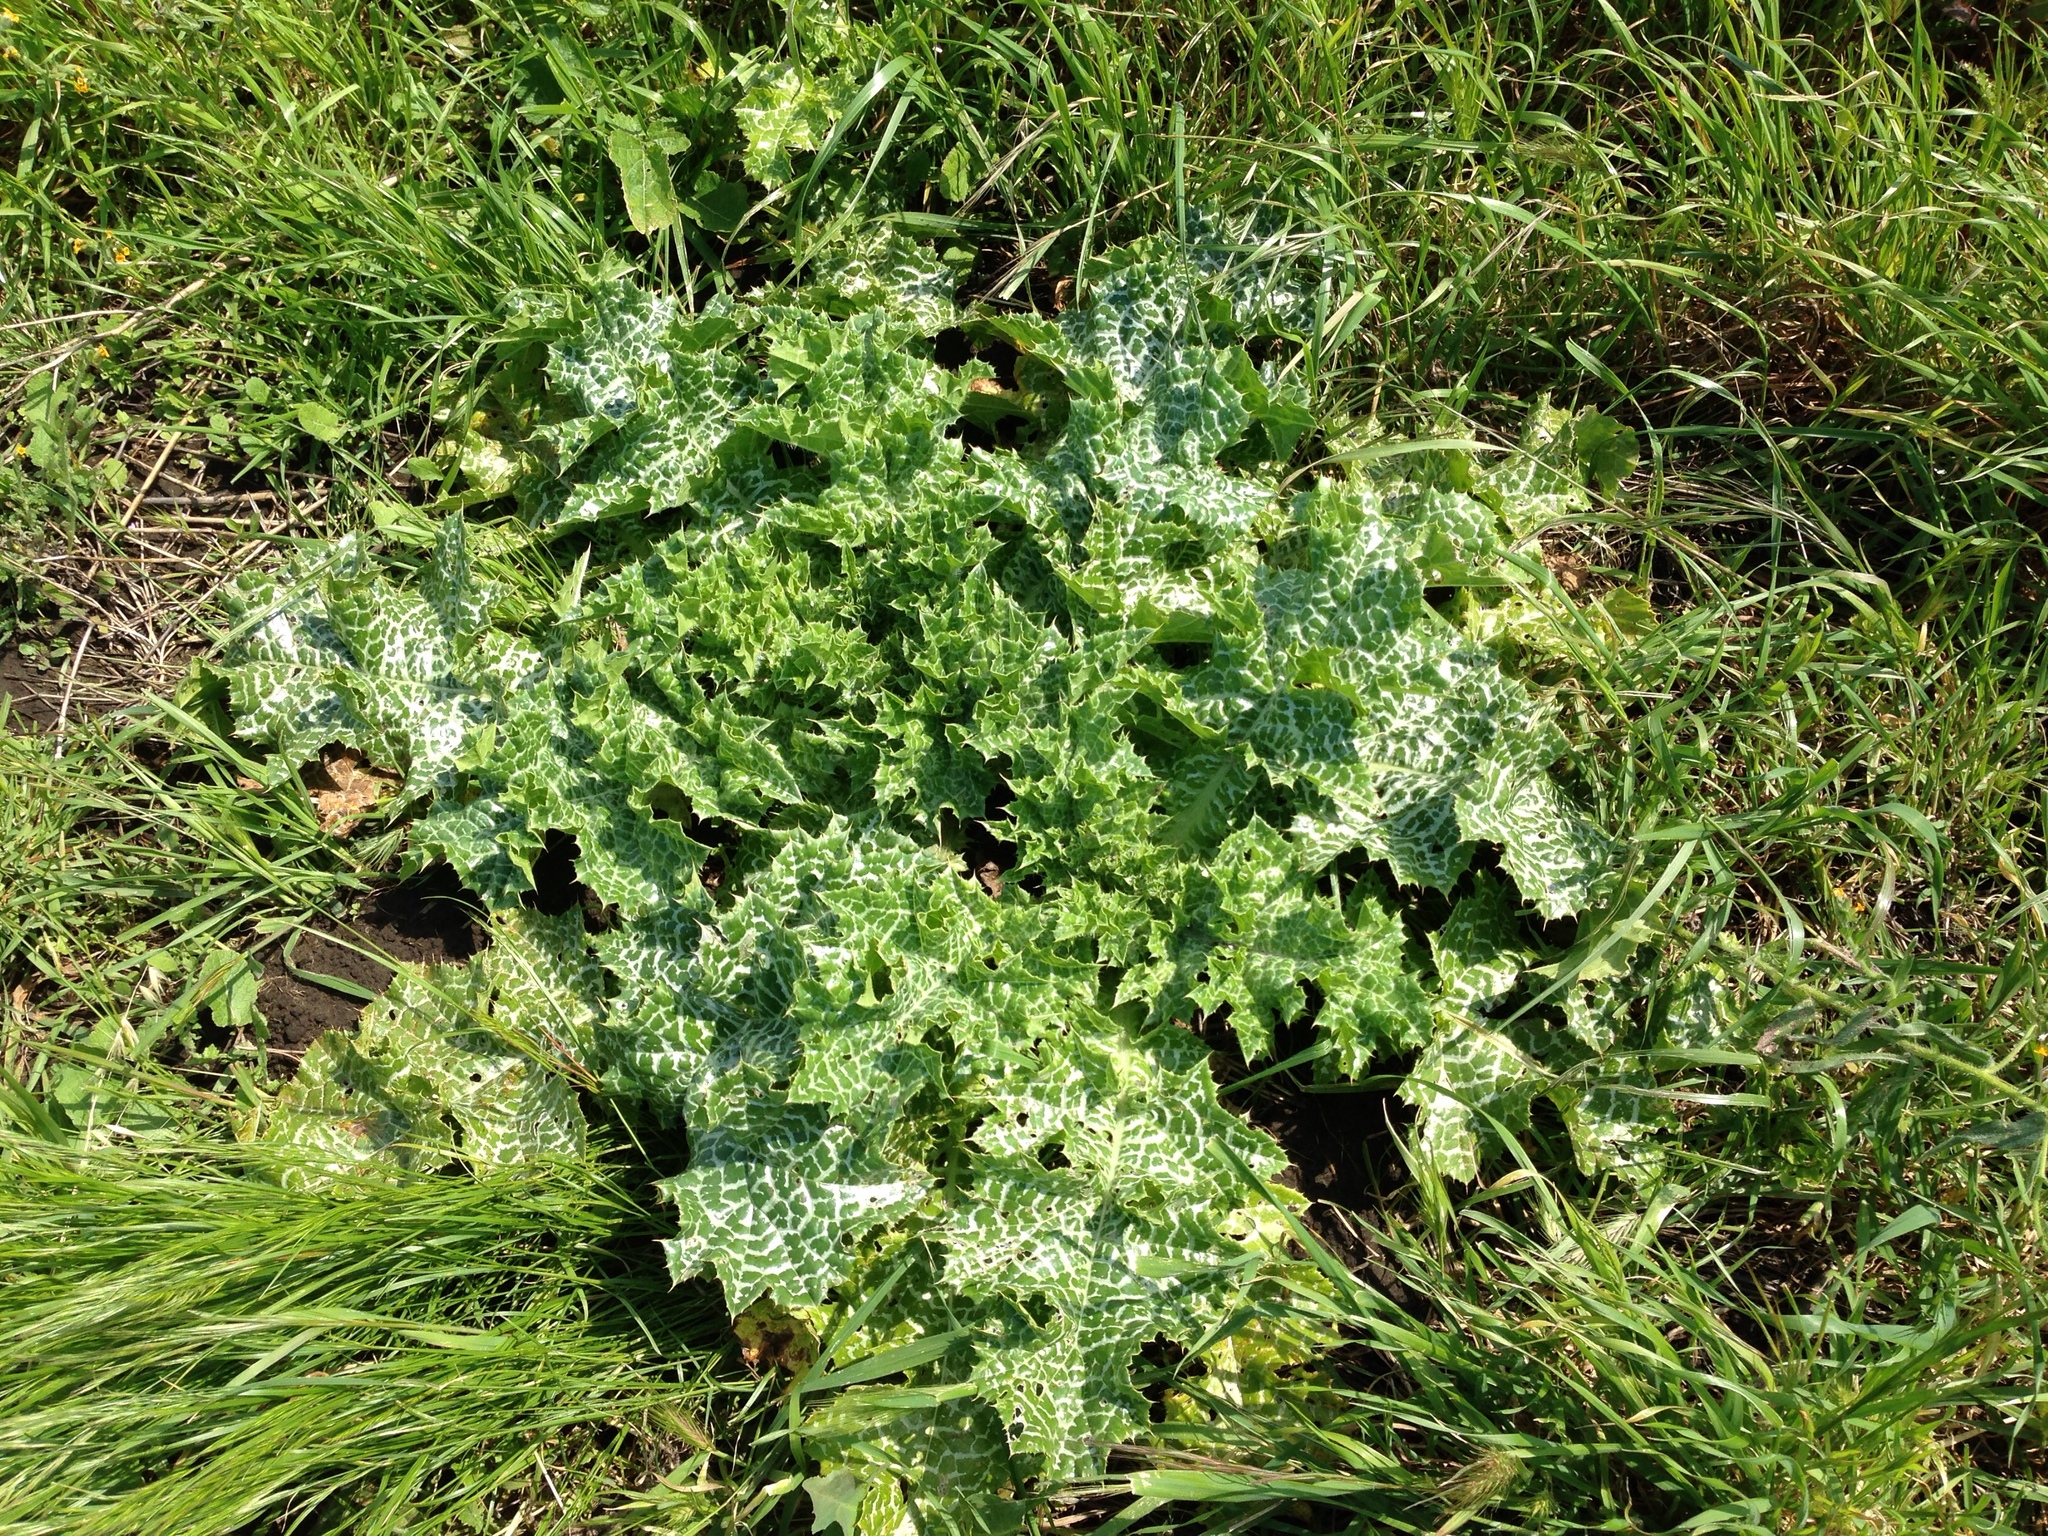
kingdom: Plantae
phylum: Tracheophyta
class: Magnoliopsida
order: Asterales
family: Asteraceae
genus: Silybum
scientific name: Silybum marianum
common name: Milk thistle
